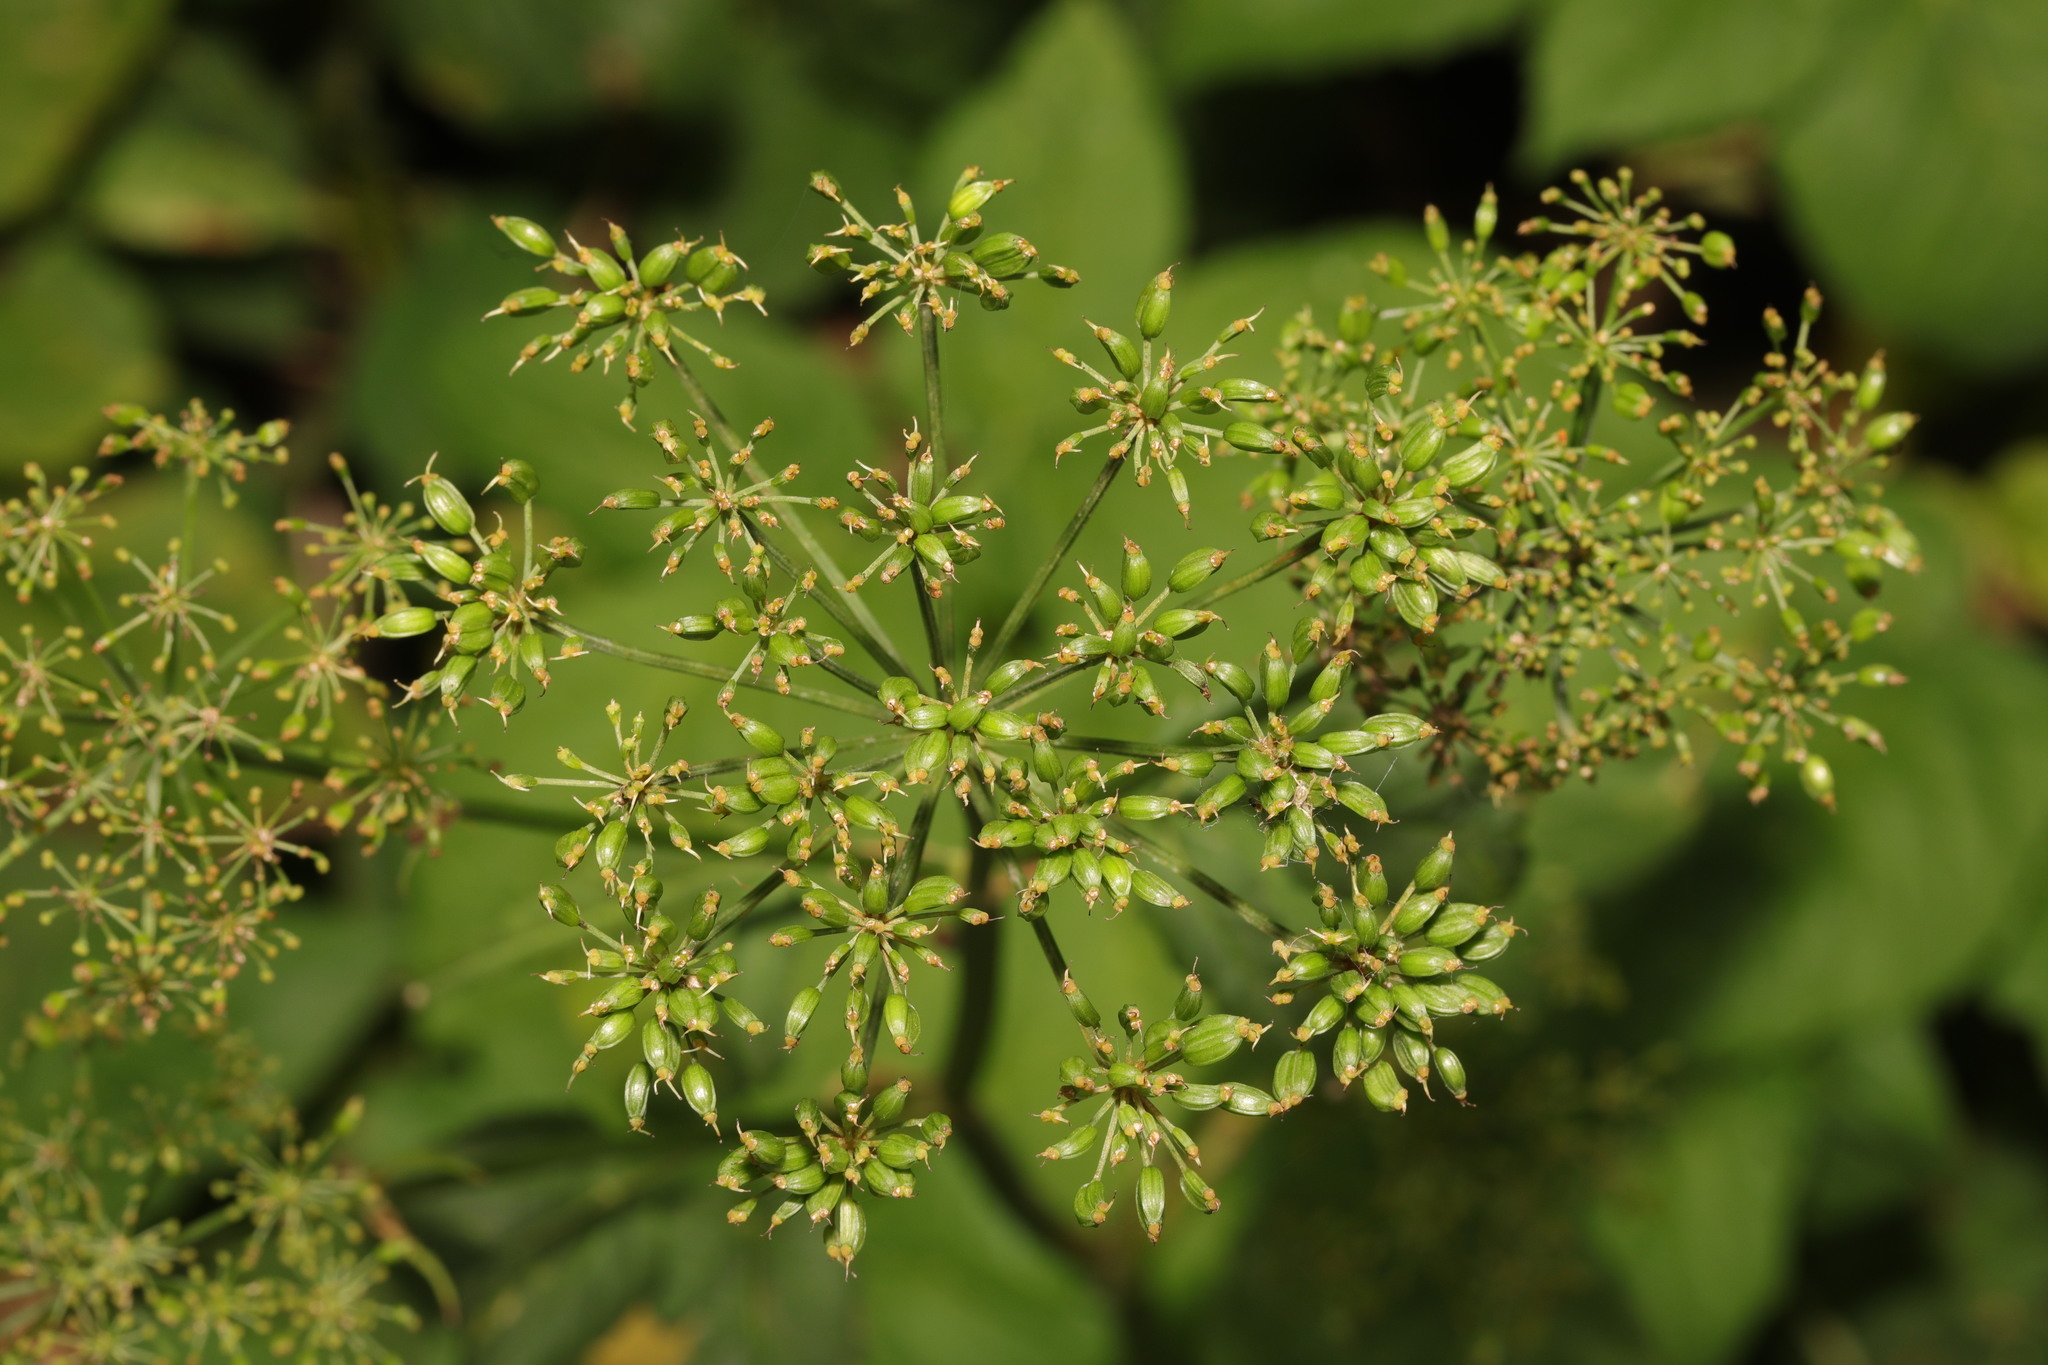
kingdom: Plantae
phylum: Tracheophyta
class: Magnoliopsida
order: Apiales
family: Apiaceae
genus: Aegopodium
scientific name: Aegopodium podagraria
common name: Ground-elder
